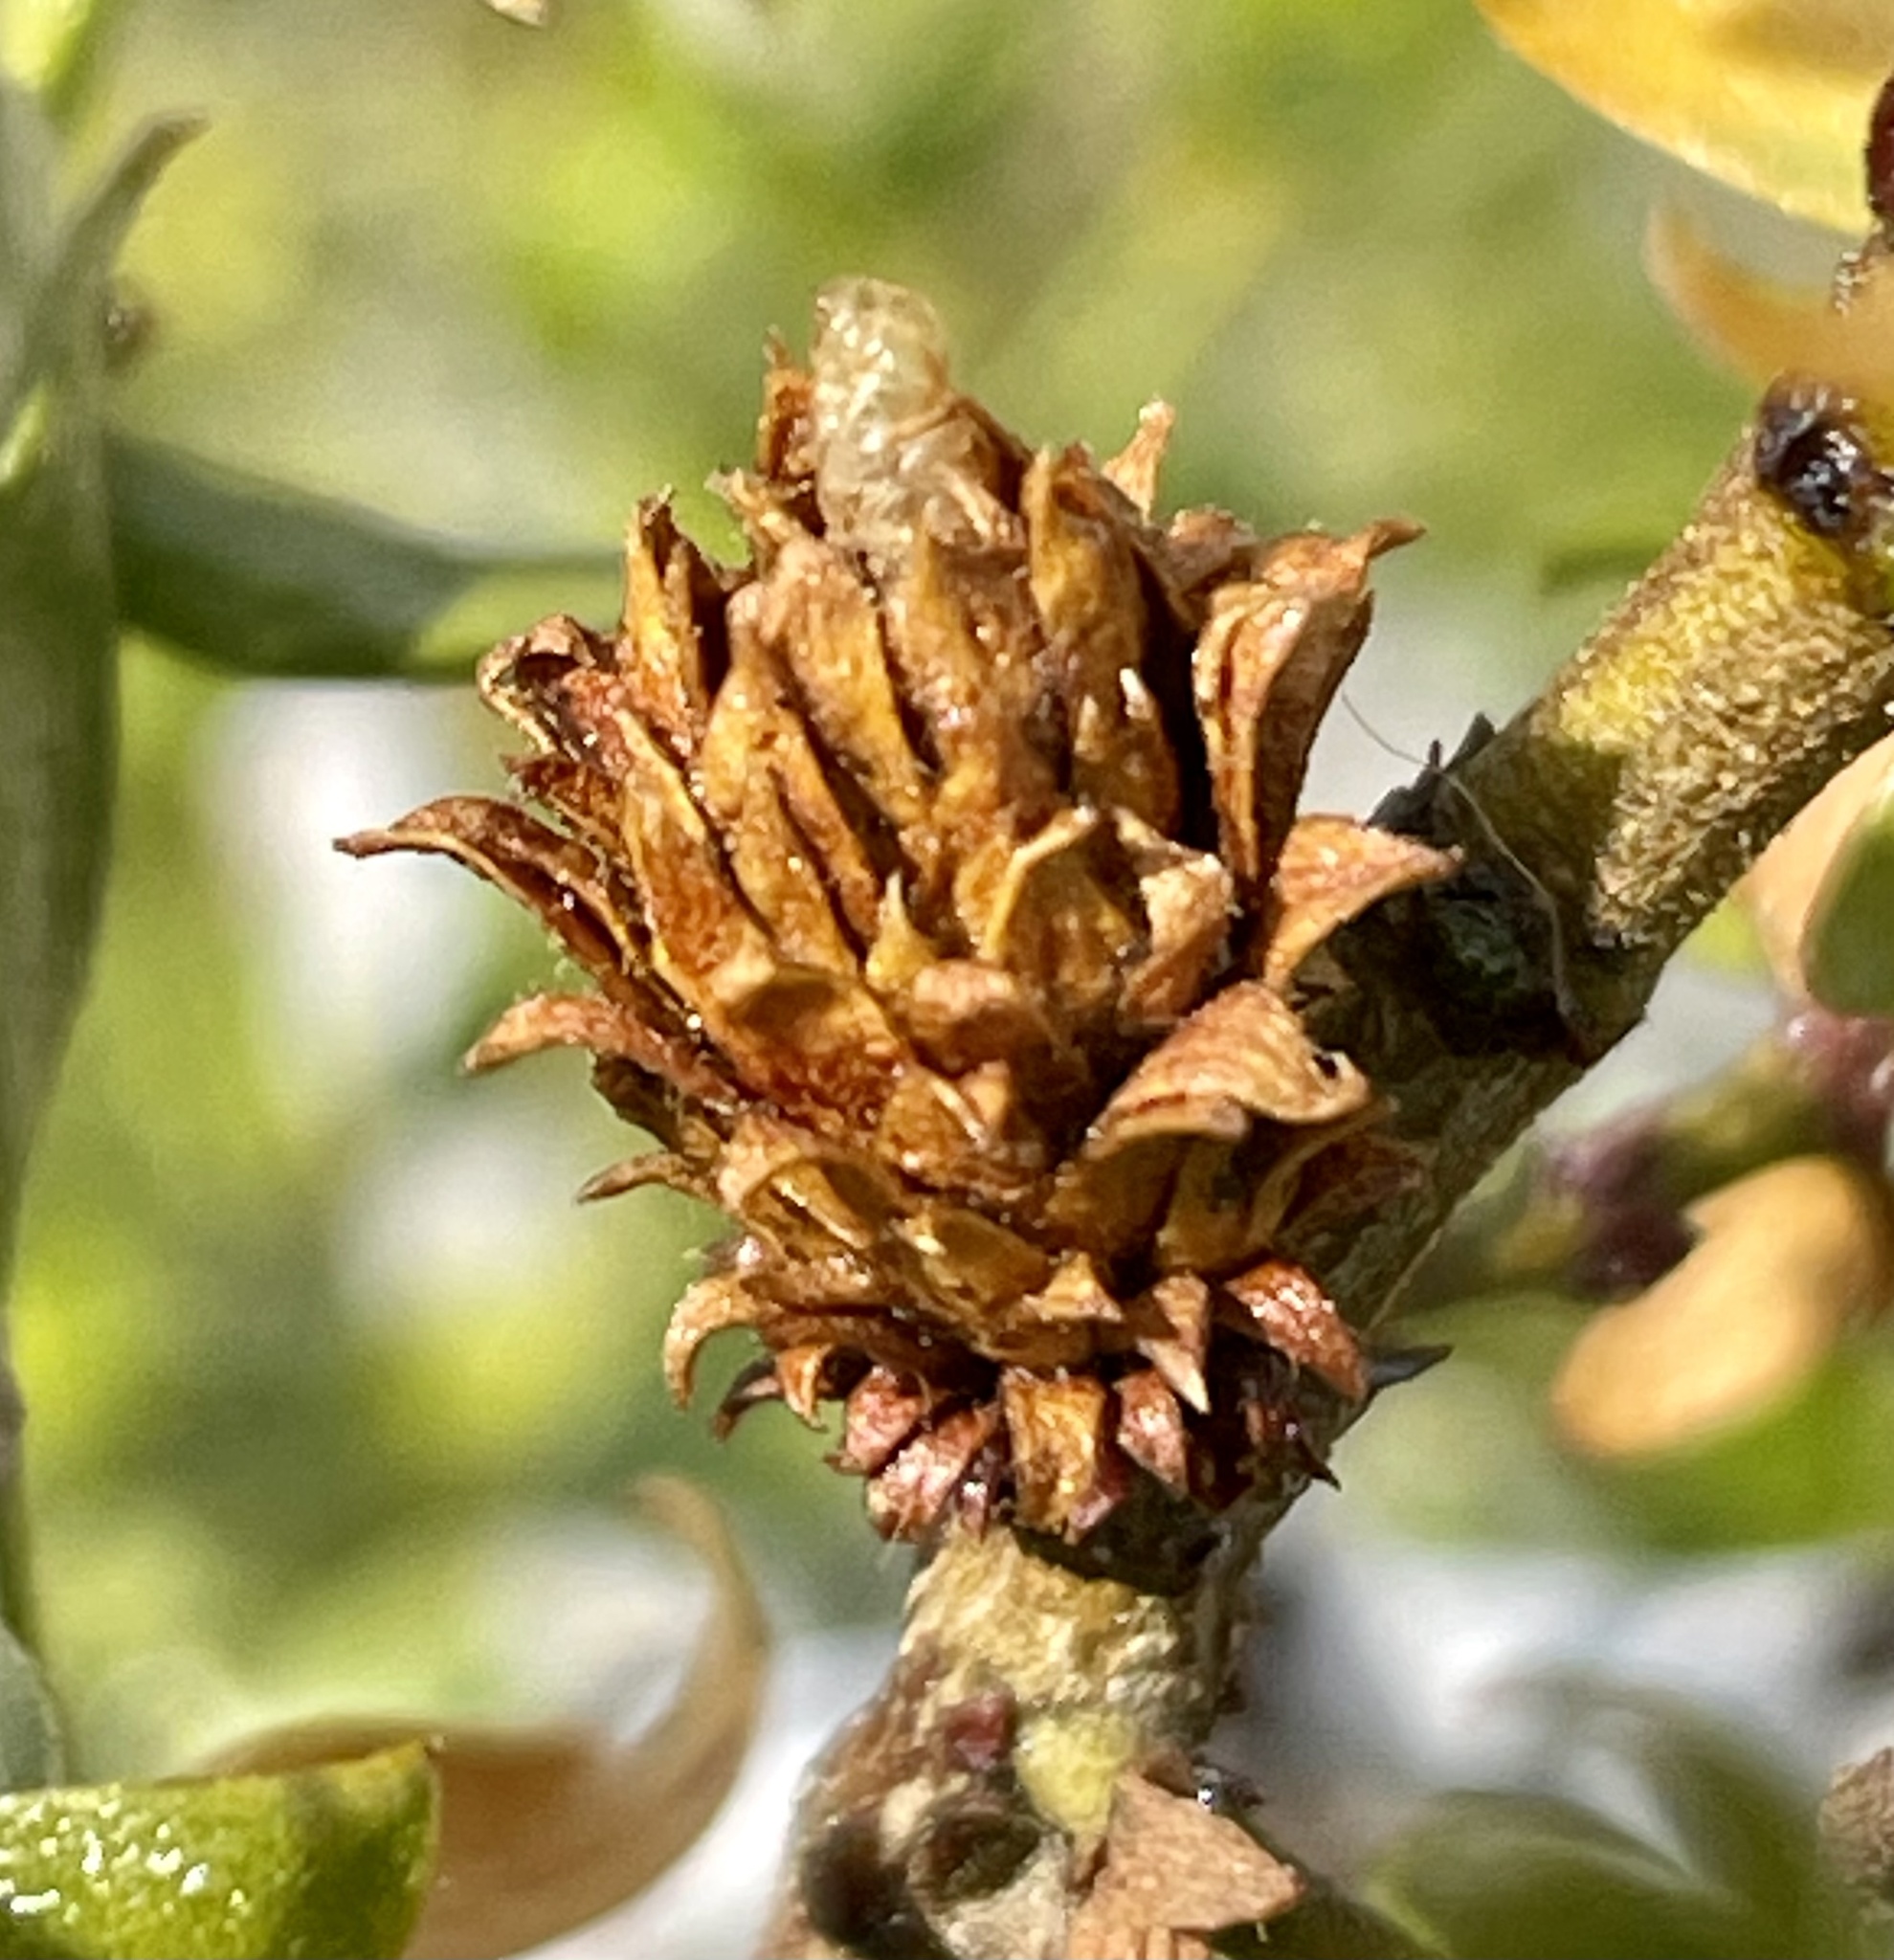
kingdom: Animalia
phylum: Arthropoda
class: Insecta
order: Diptera
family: Cecidomyiidae
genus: Asphondylia
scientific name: Asphondylia rosetta
